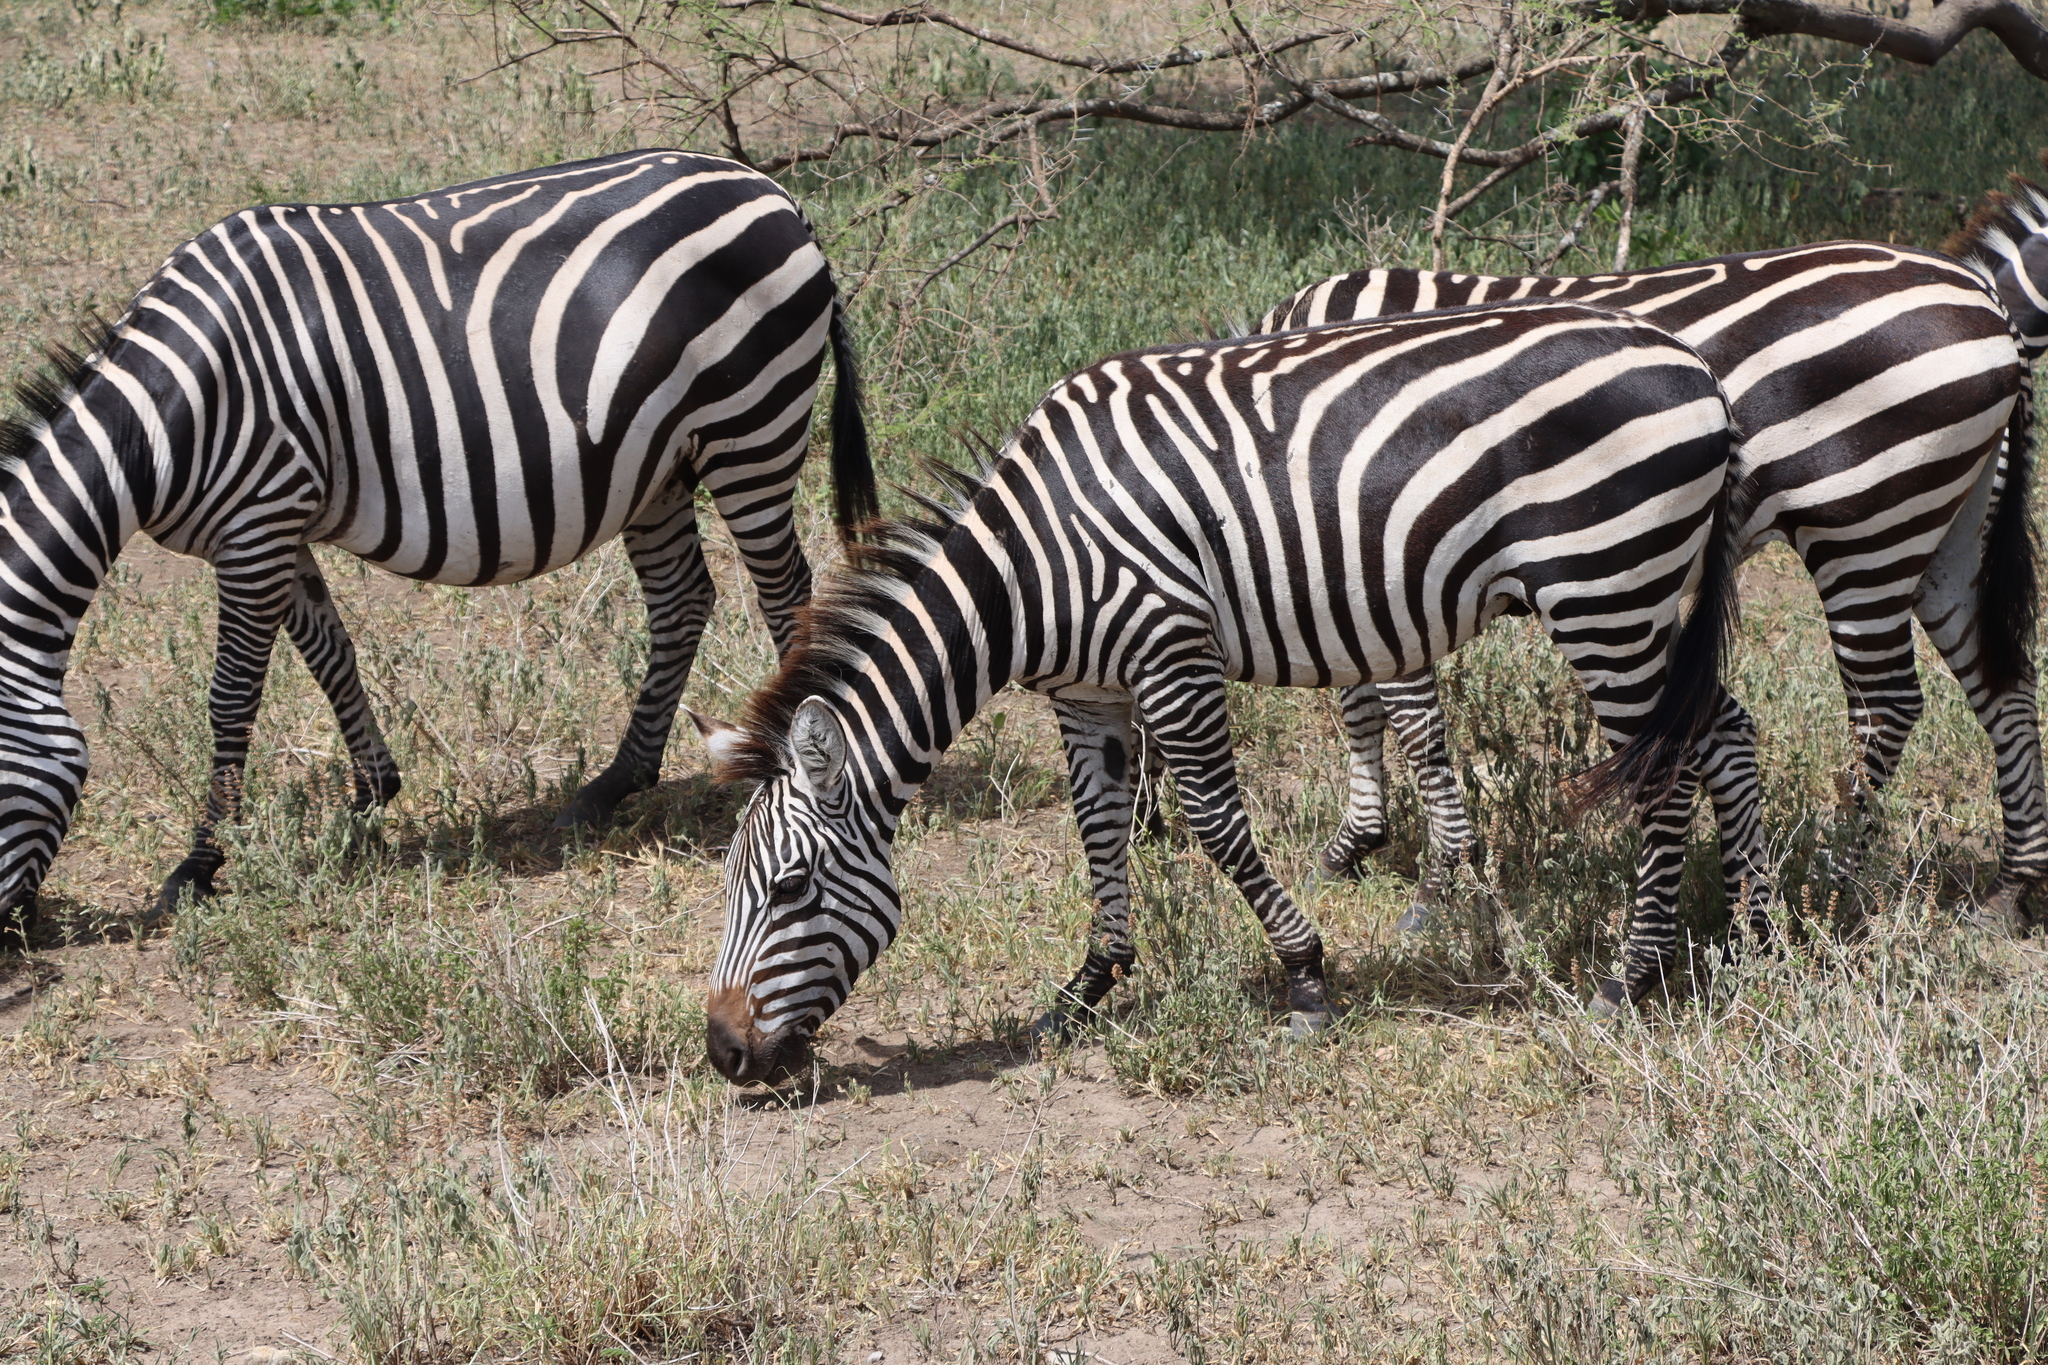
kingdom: Animalia
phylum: Chordata
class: Mammalia
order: Perissodactyla
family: Equidae
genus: Equus
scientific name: Equus quagga
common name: Plains zebra
